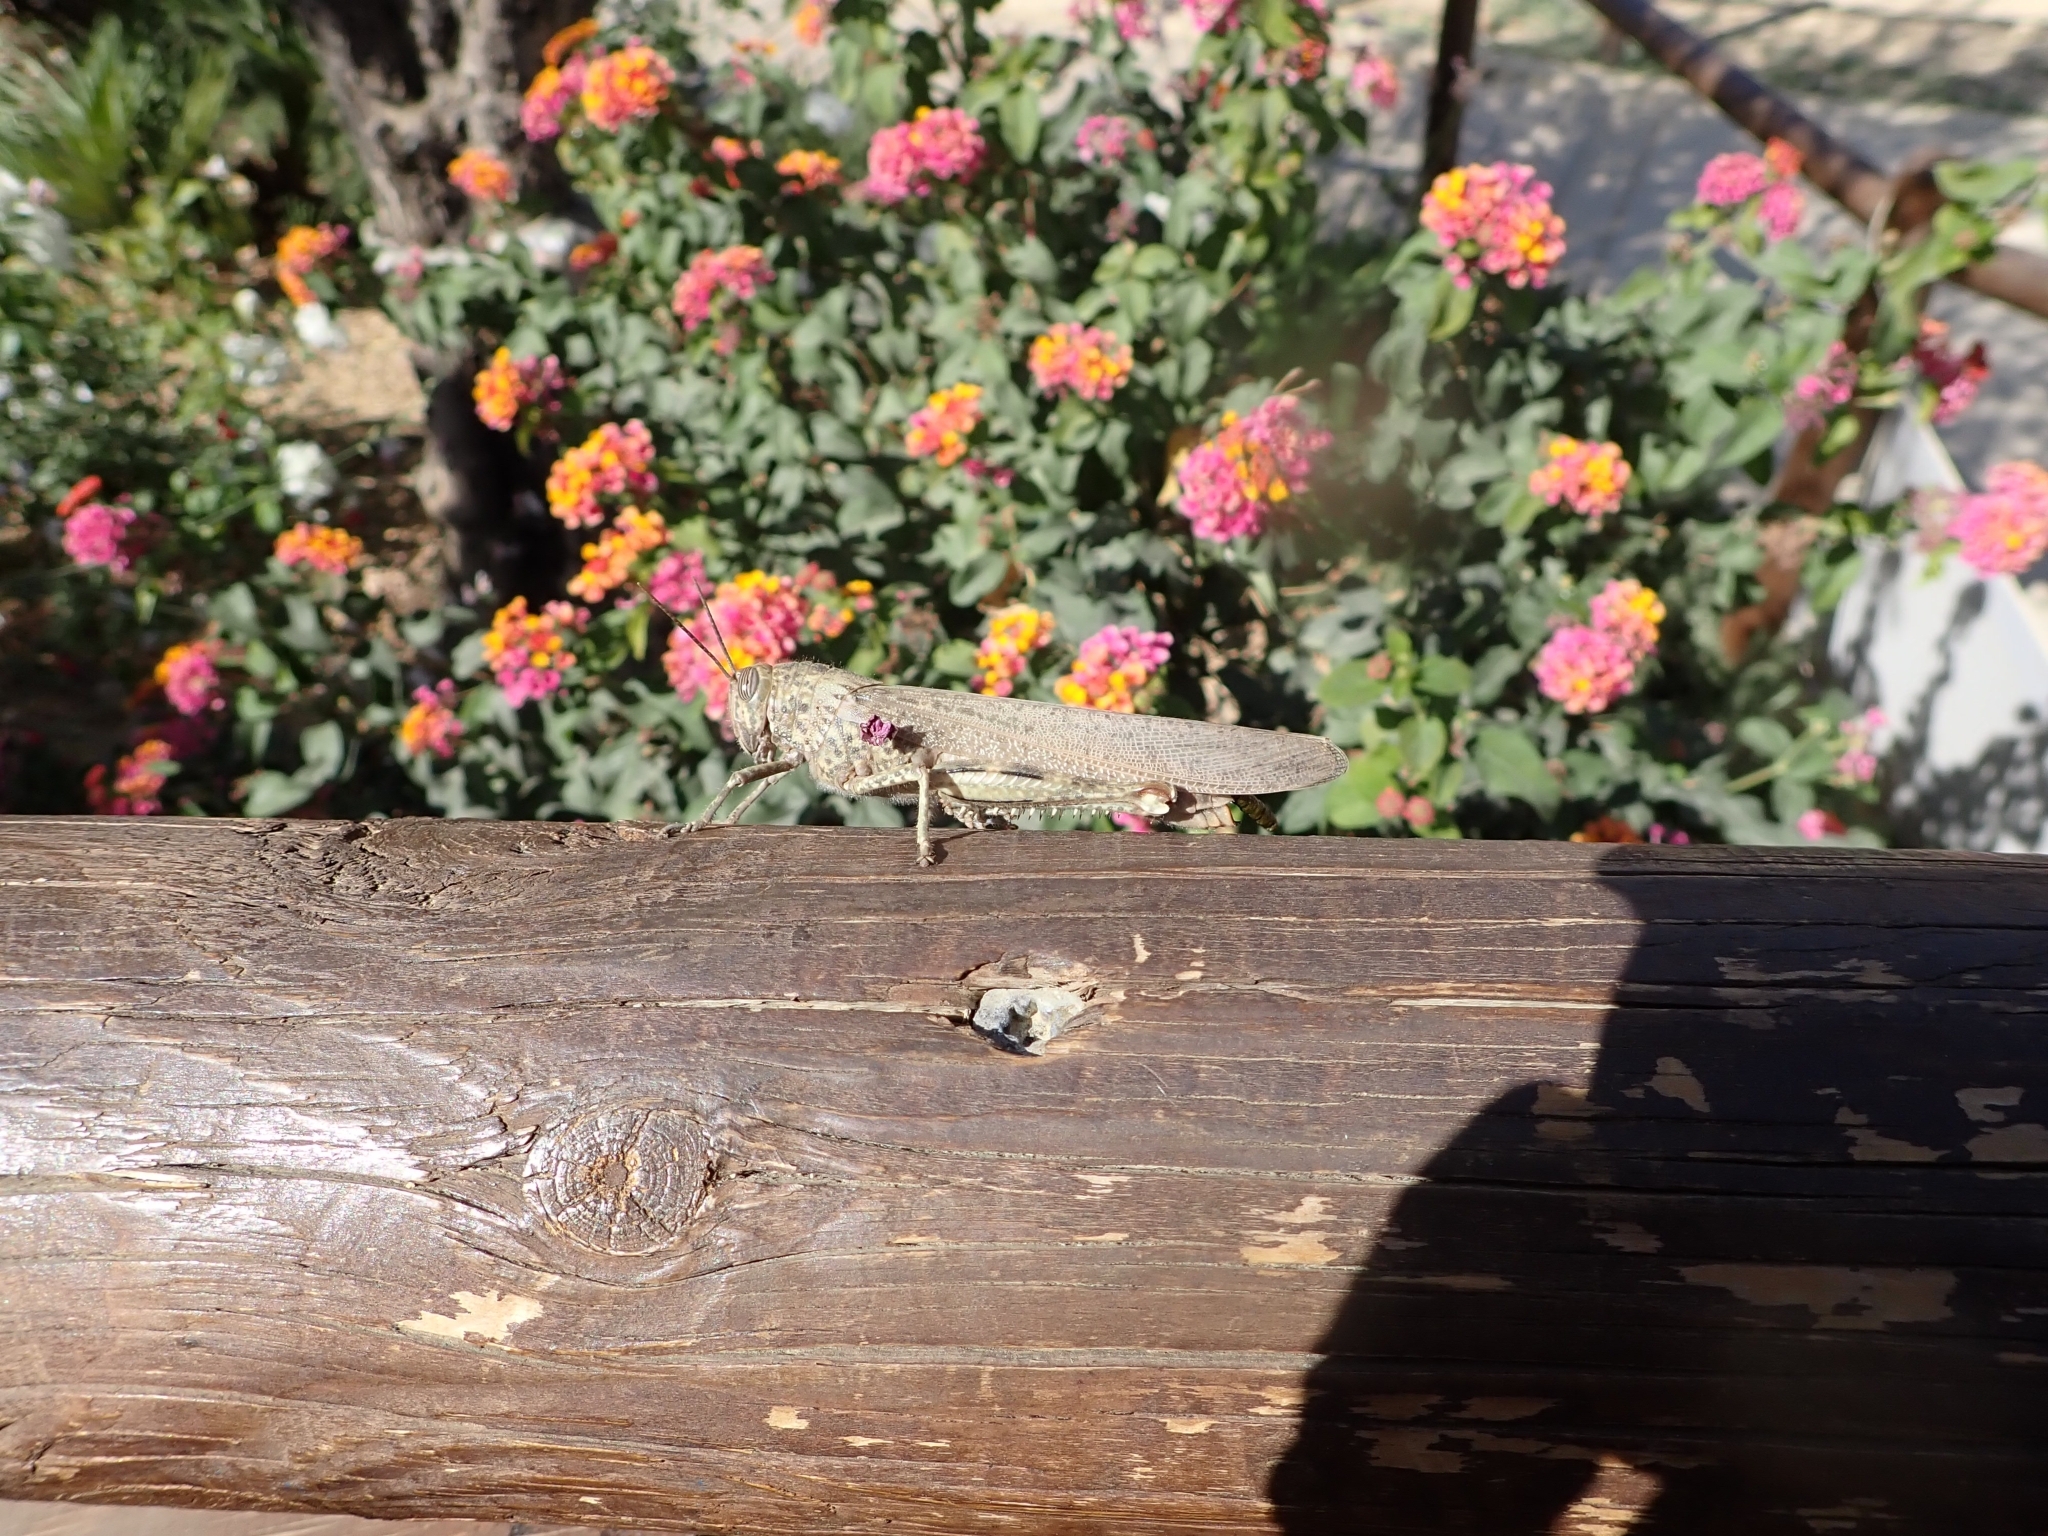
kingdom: Animalia
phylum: Arthropoda
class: Insecta
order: Orthoptera
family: Acrididae
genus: Anacridium
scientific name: Anacridium aegyptium
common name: Egyptian grasshopper
